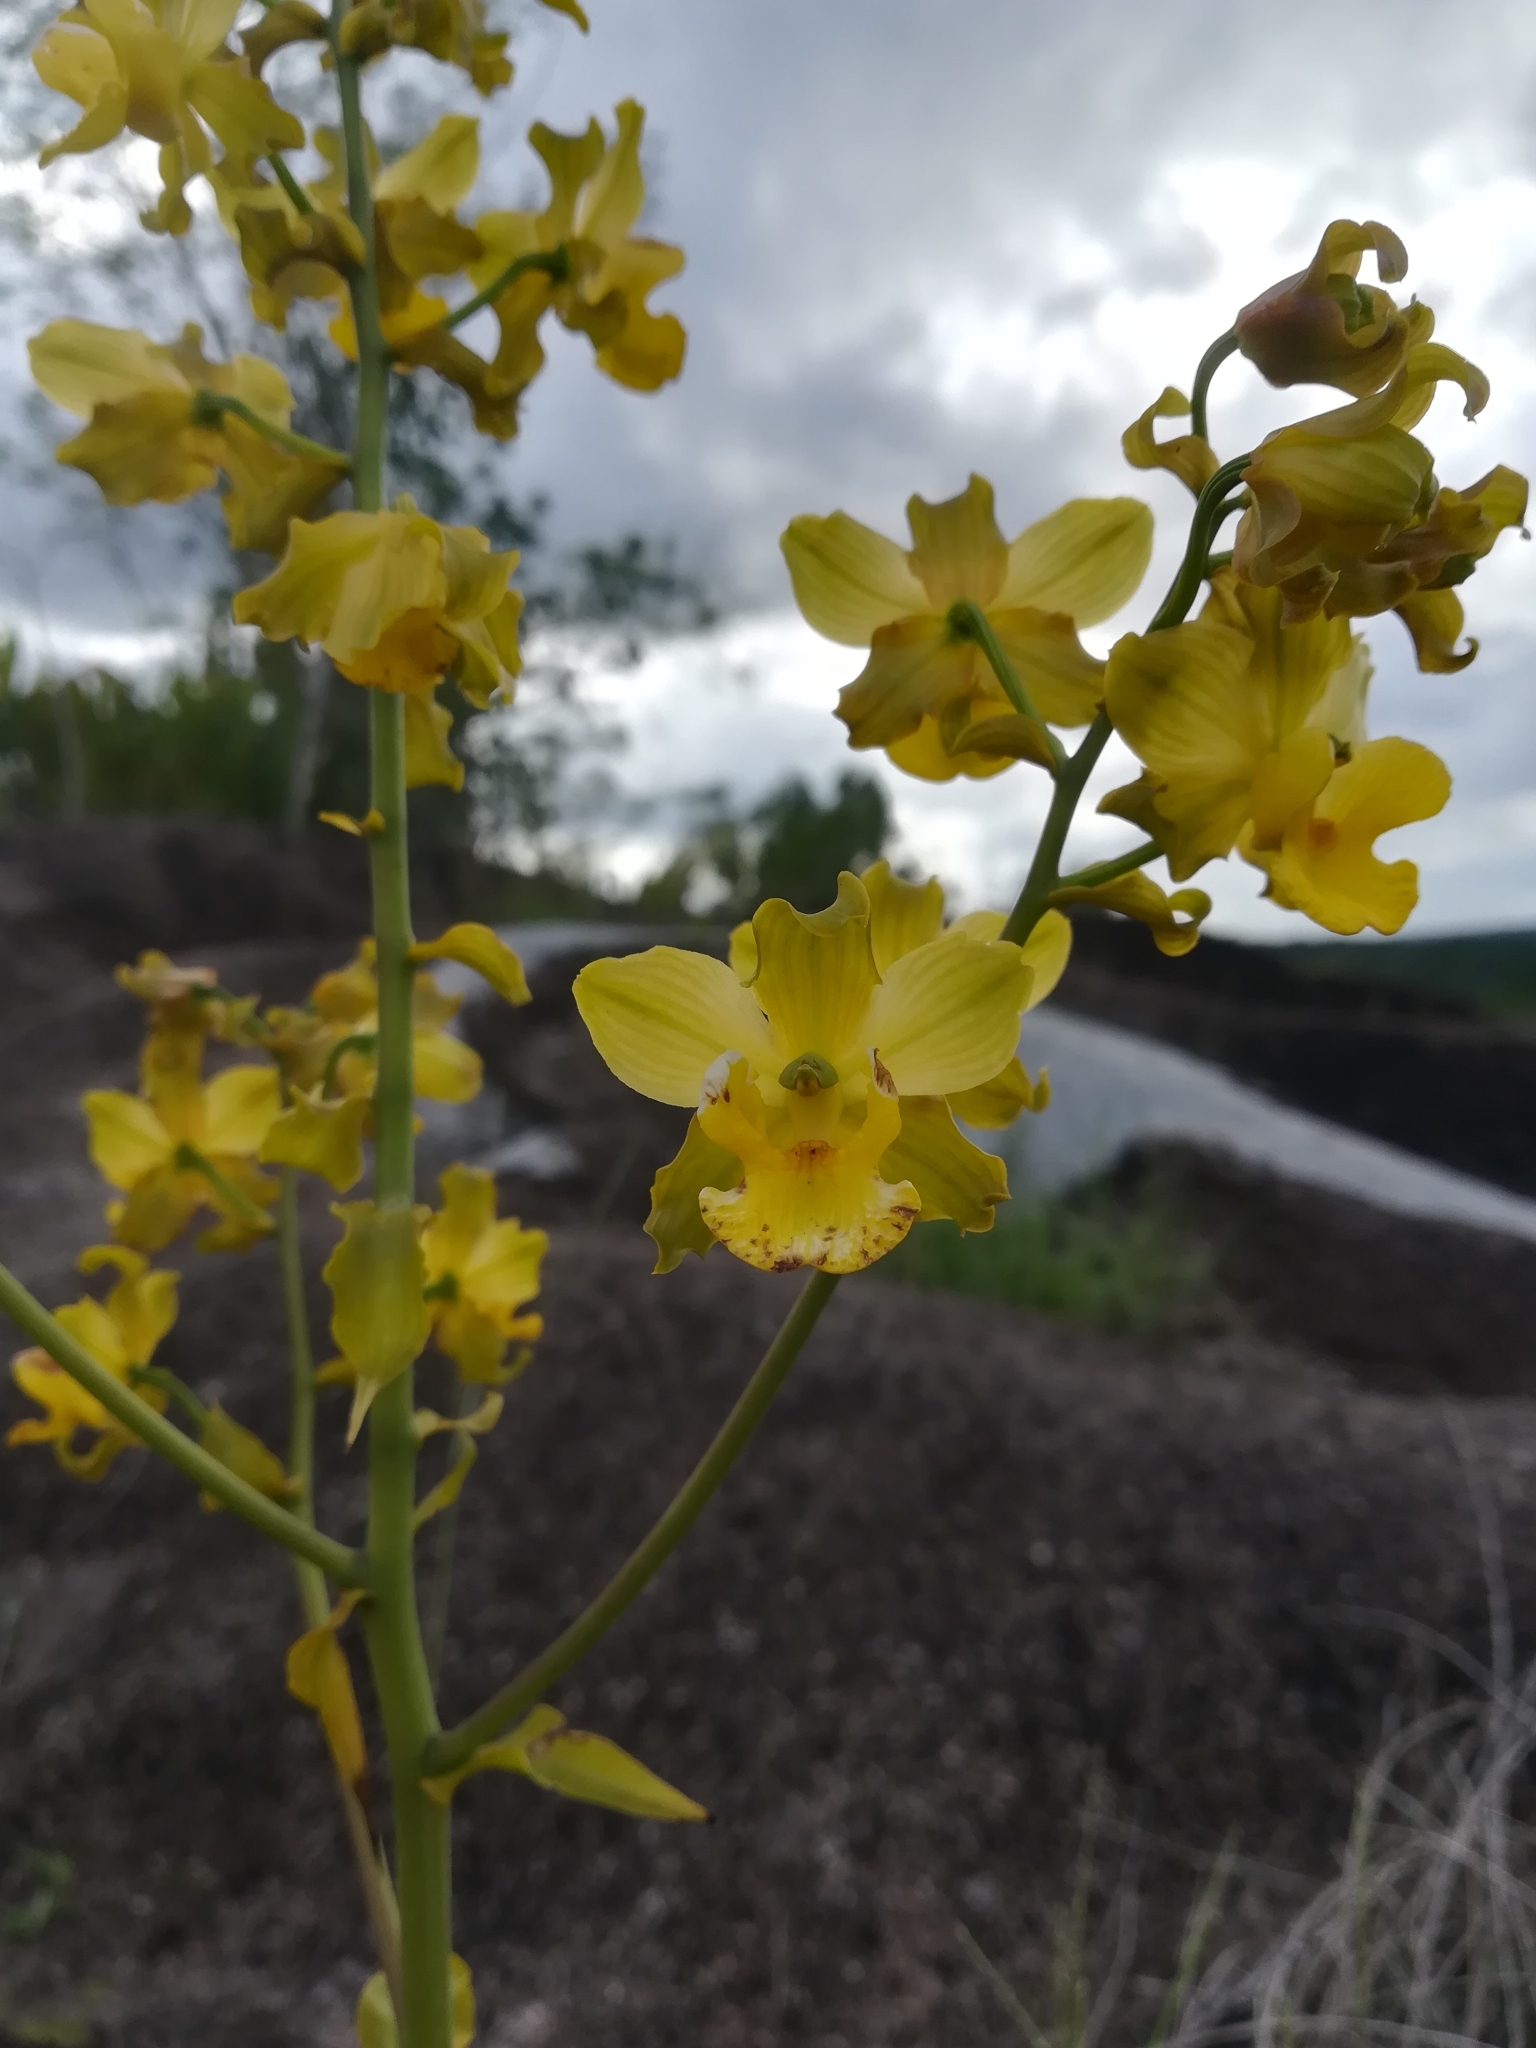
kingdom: Plantae
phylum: Tracheophyta
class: Liliopsida
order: Asparagales
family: Orchidaceae
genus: Cyrtopodium
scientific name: Cyrtopodium andersonii
